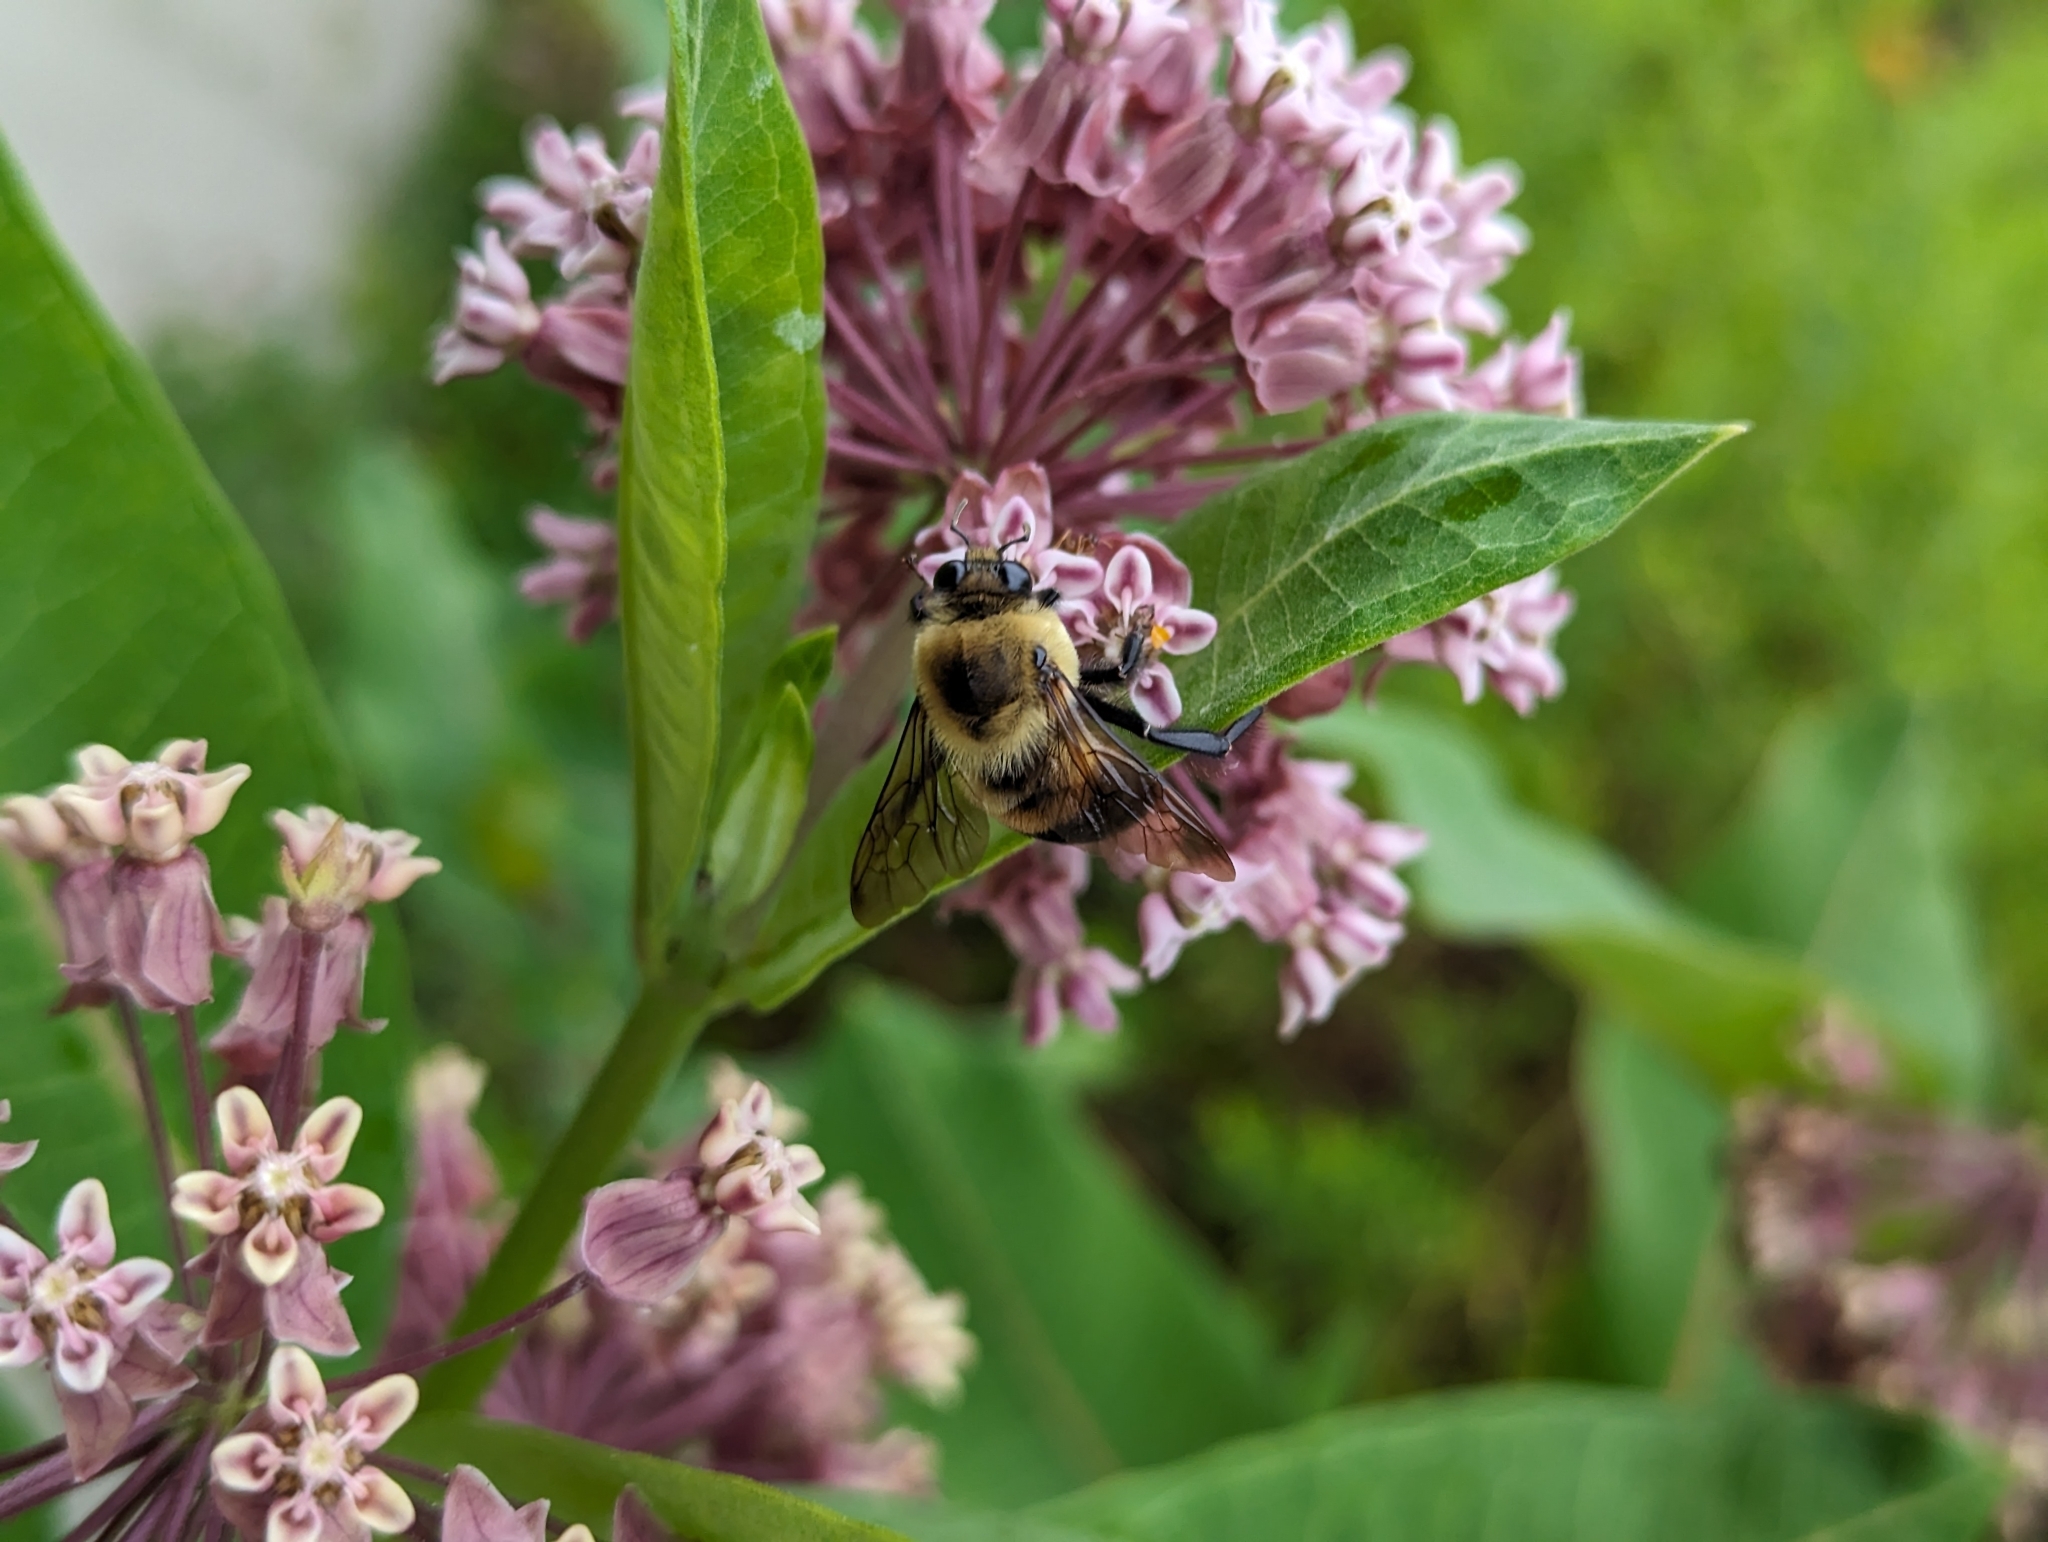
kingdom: Animalia
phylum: Arthropoda
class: Insecta
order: Hymenoptera
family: Apidae
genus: Bombus
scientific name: Bombus griseocollis
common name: Brown-belted bumble bee
